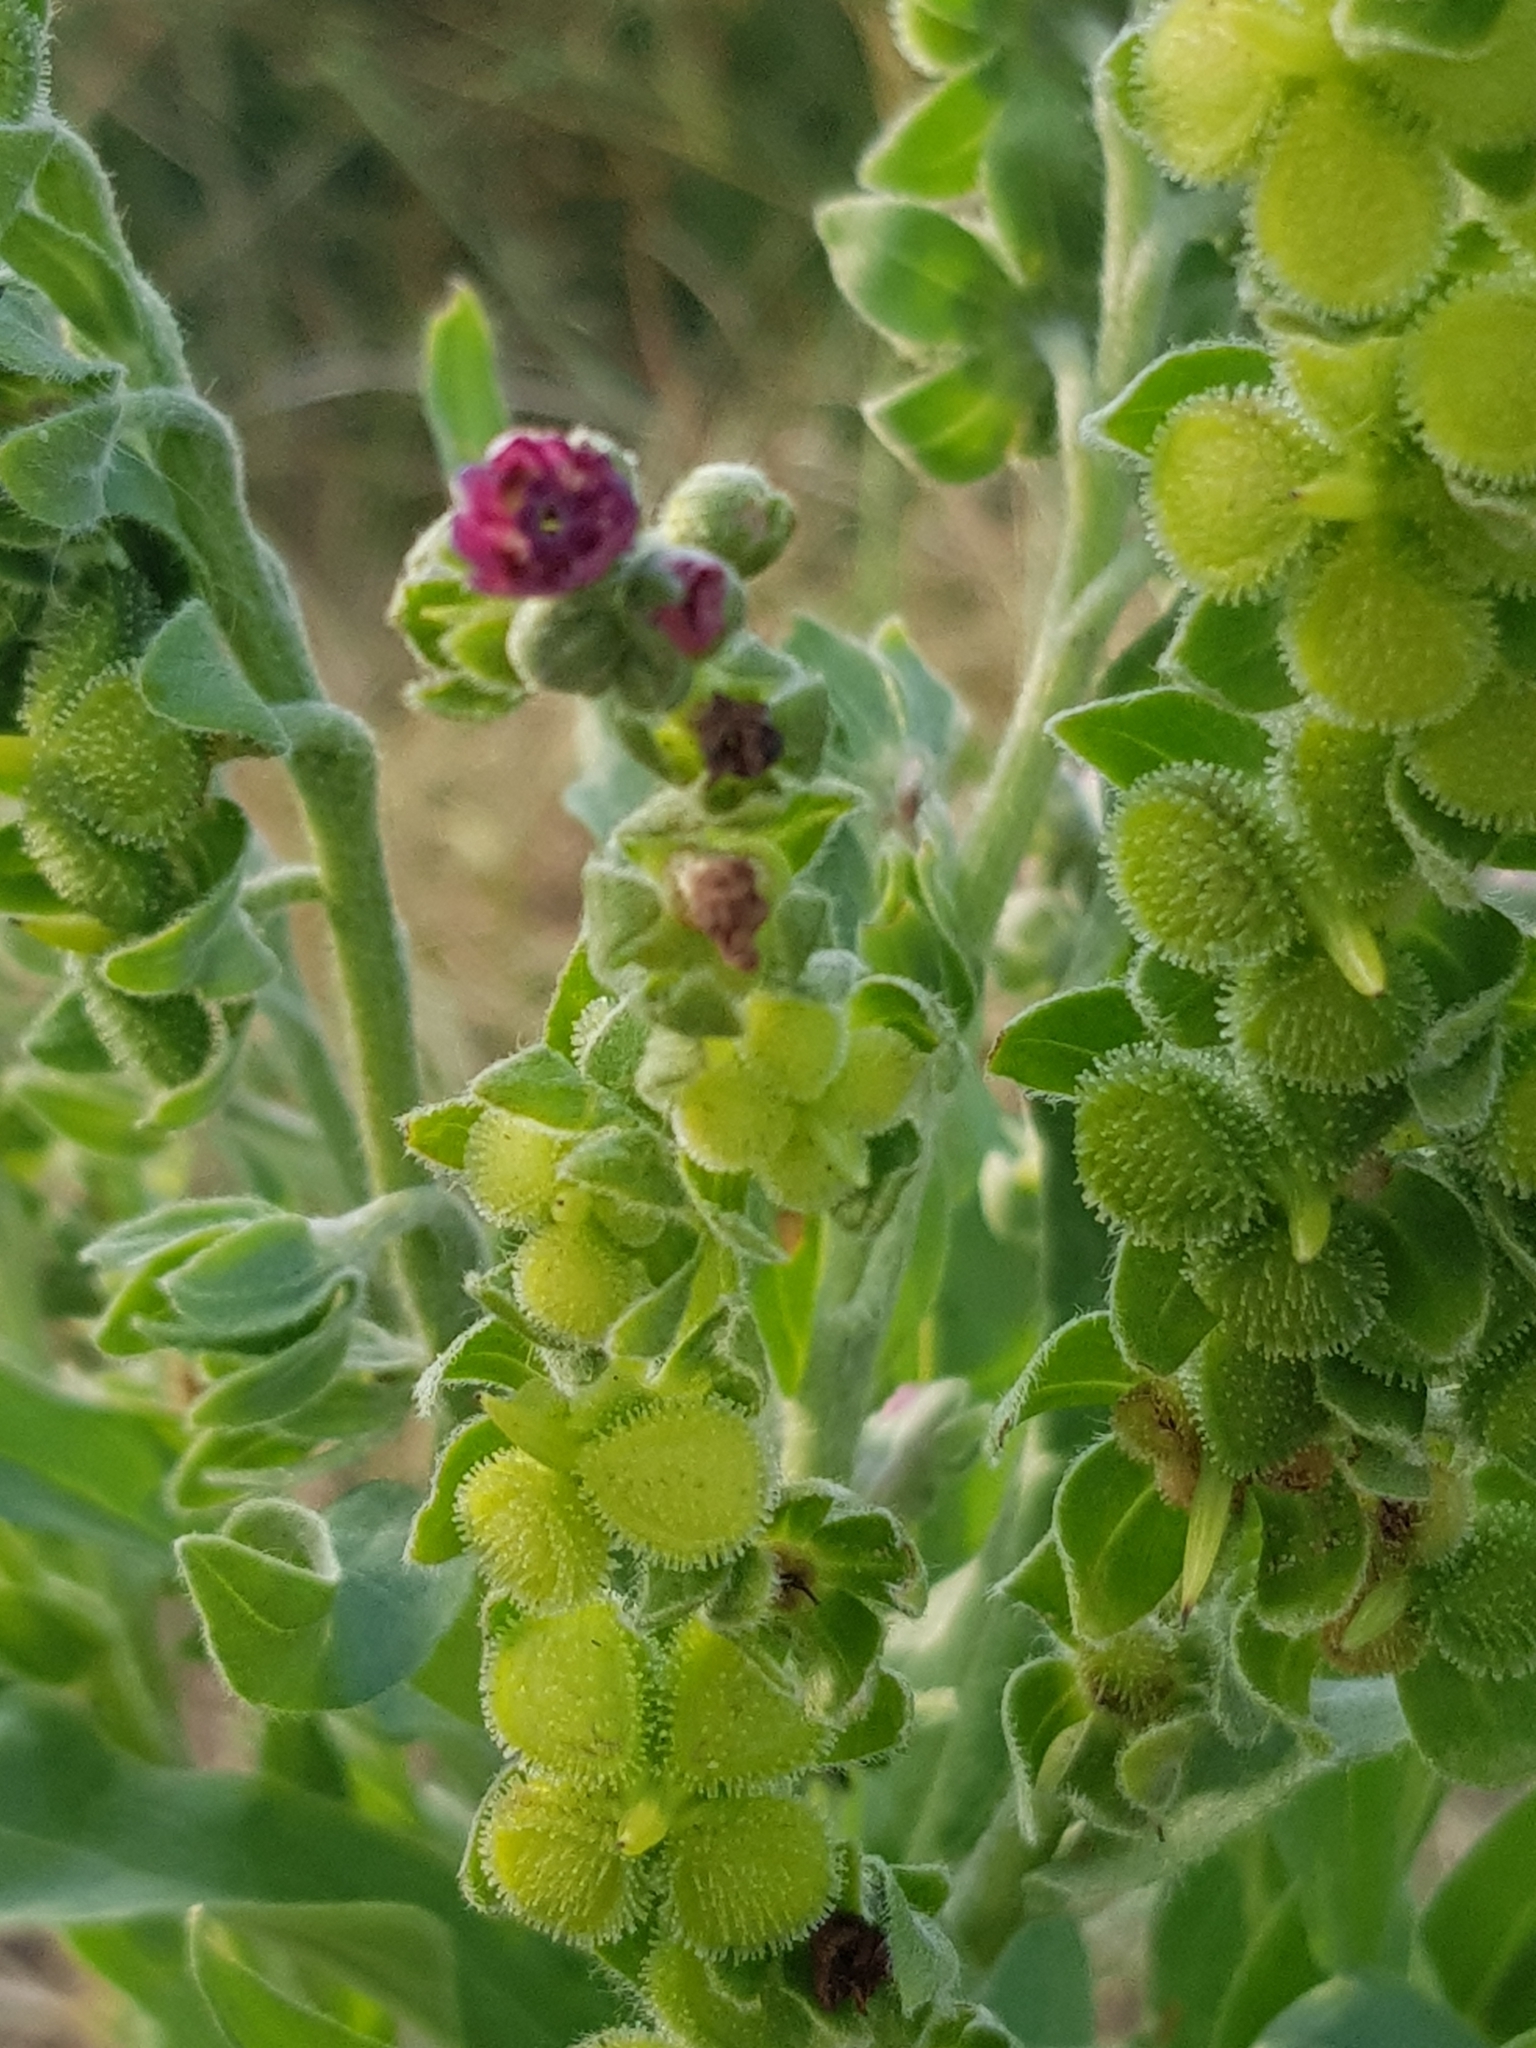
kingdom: Plantae
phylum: Tracheophyta
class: Magnoliopsida
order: Boraginales
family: Boraginaceae
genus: Cynoglossum
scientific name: Cynoglossum officinale
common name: Hound's-tongue
